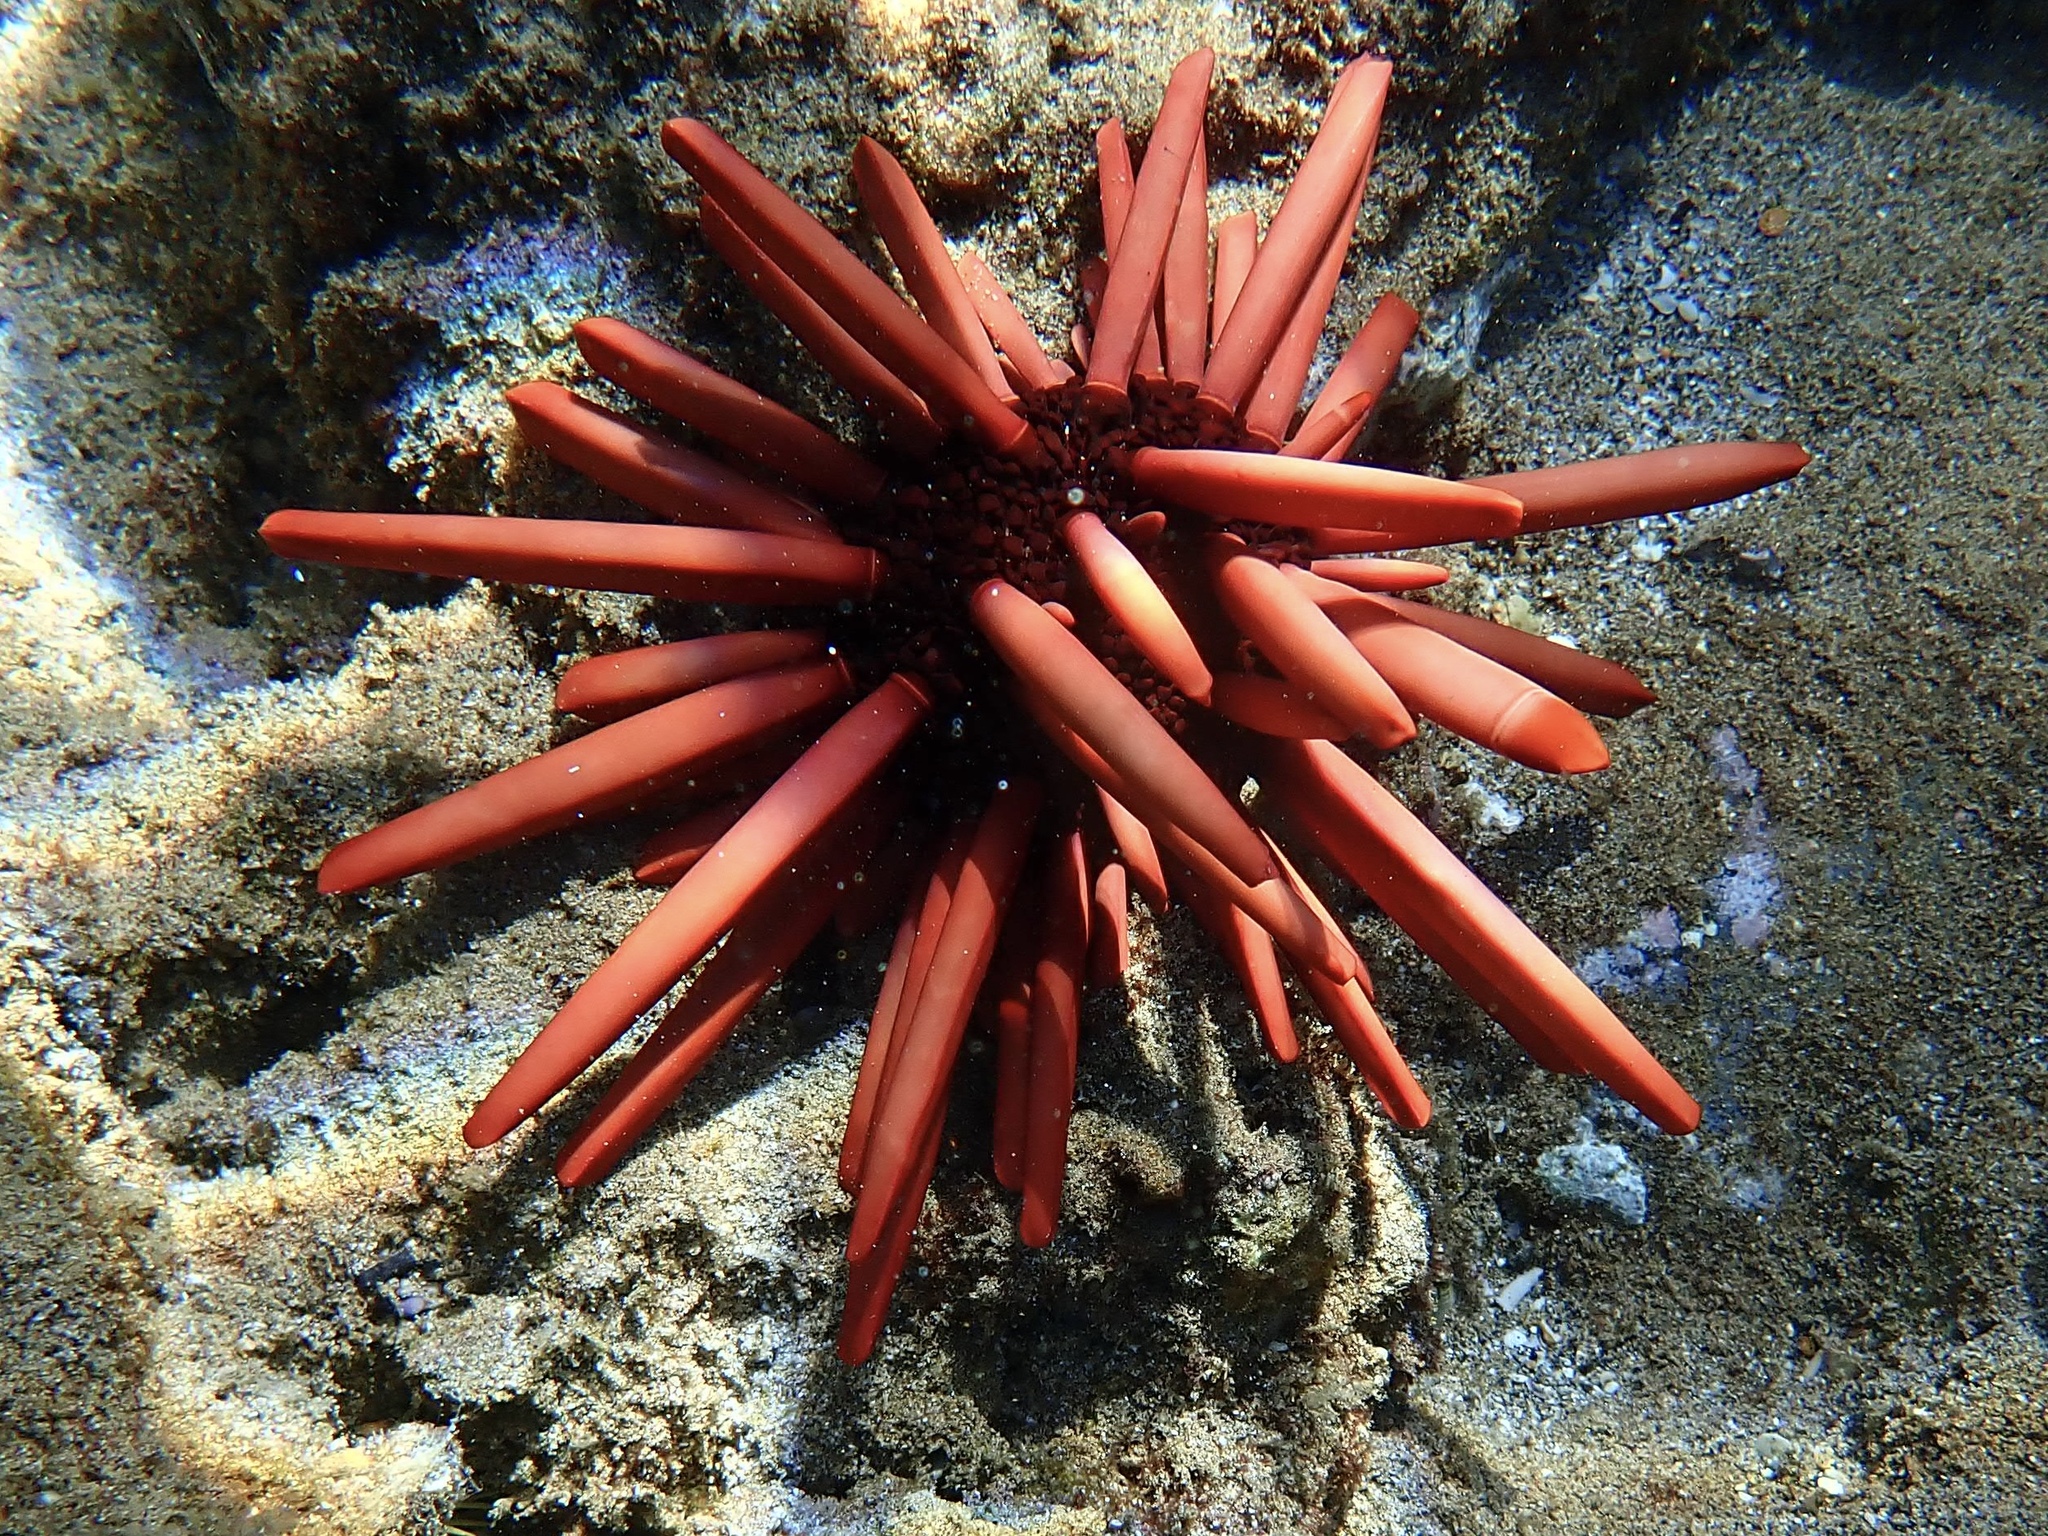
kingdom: Animalia
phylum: Echinodermata
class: Echinoidea
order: Camarodonta
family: Echinometridae
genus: Heterocentrotus
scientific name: Heterocentrotus mamillatus
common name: Slate pencil urchin
